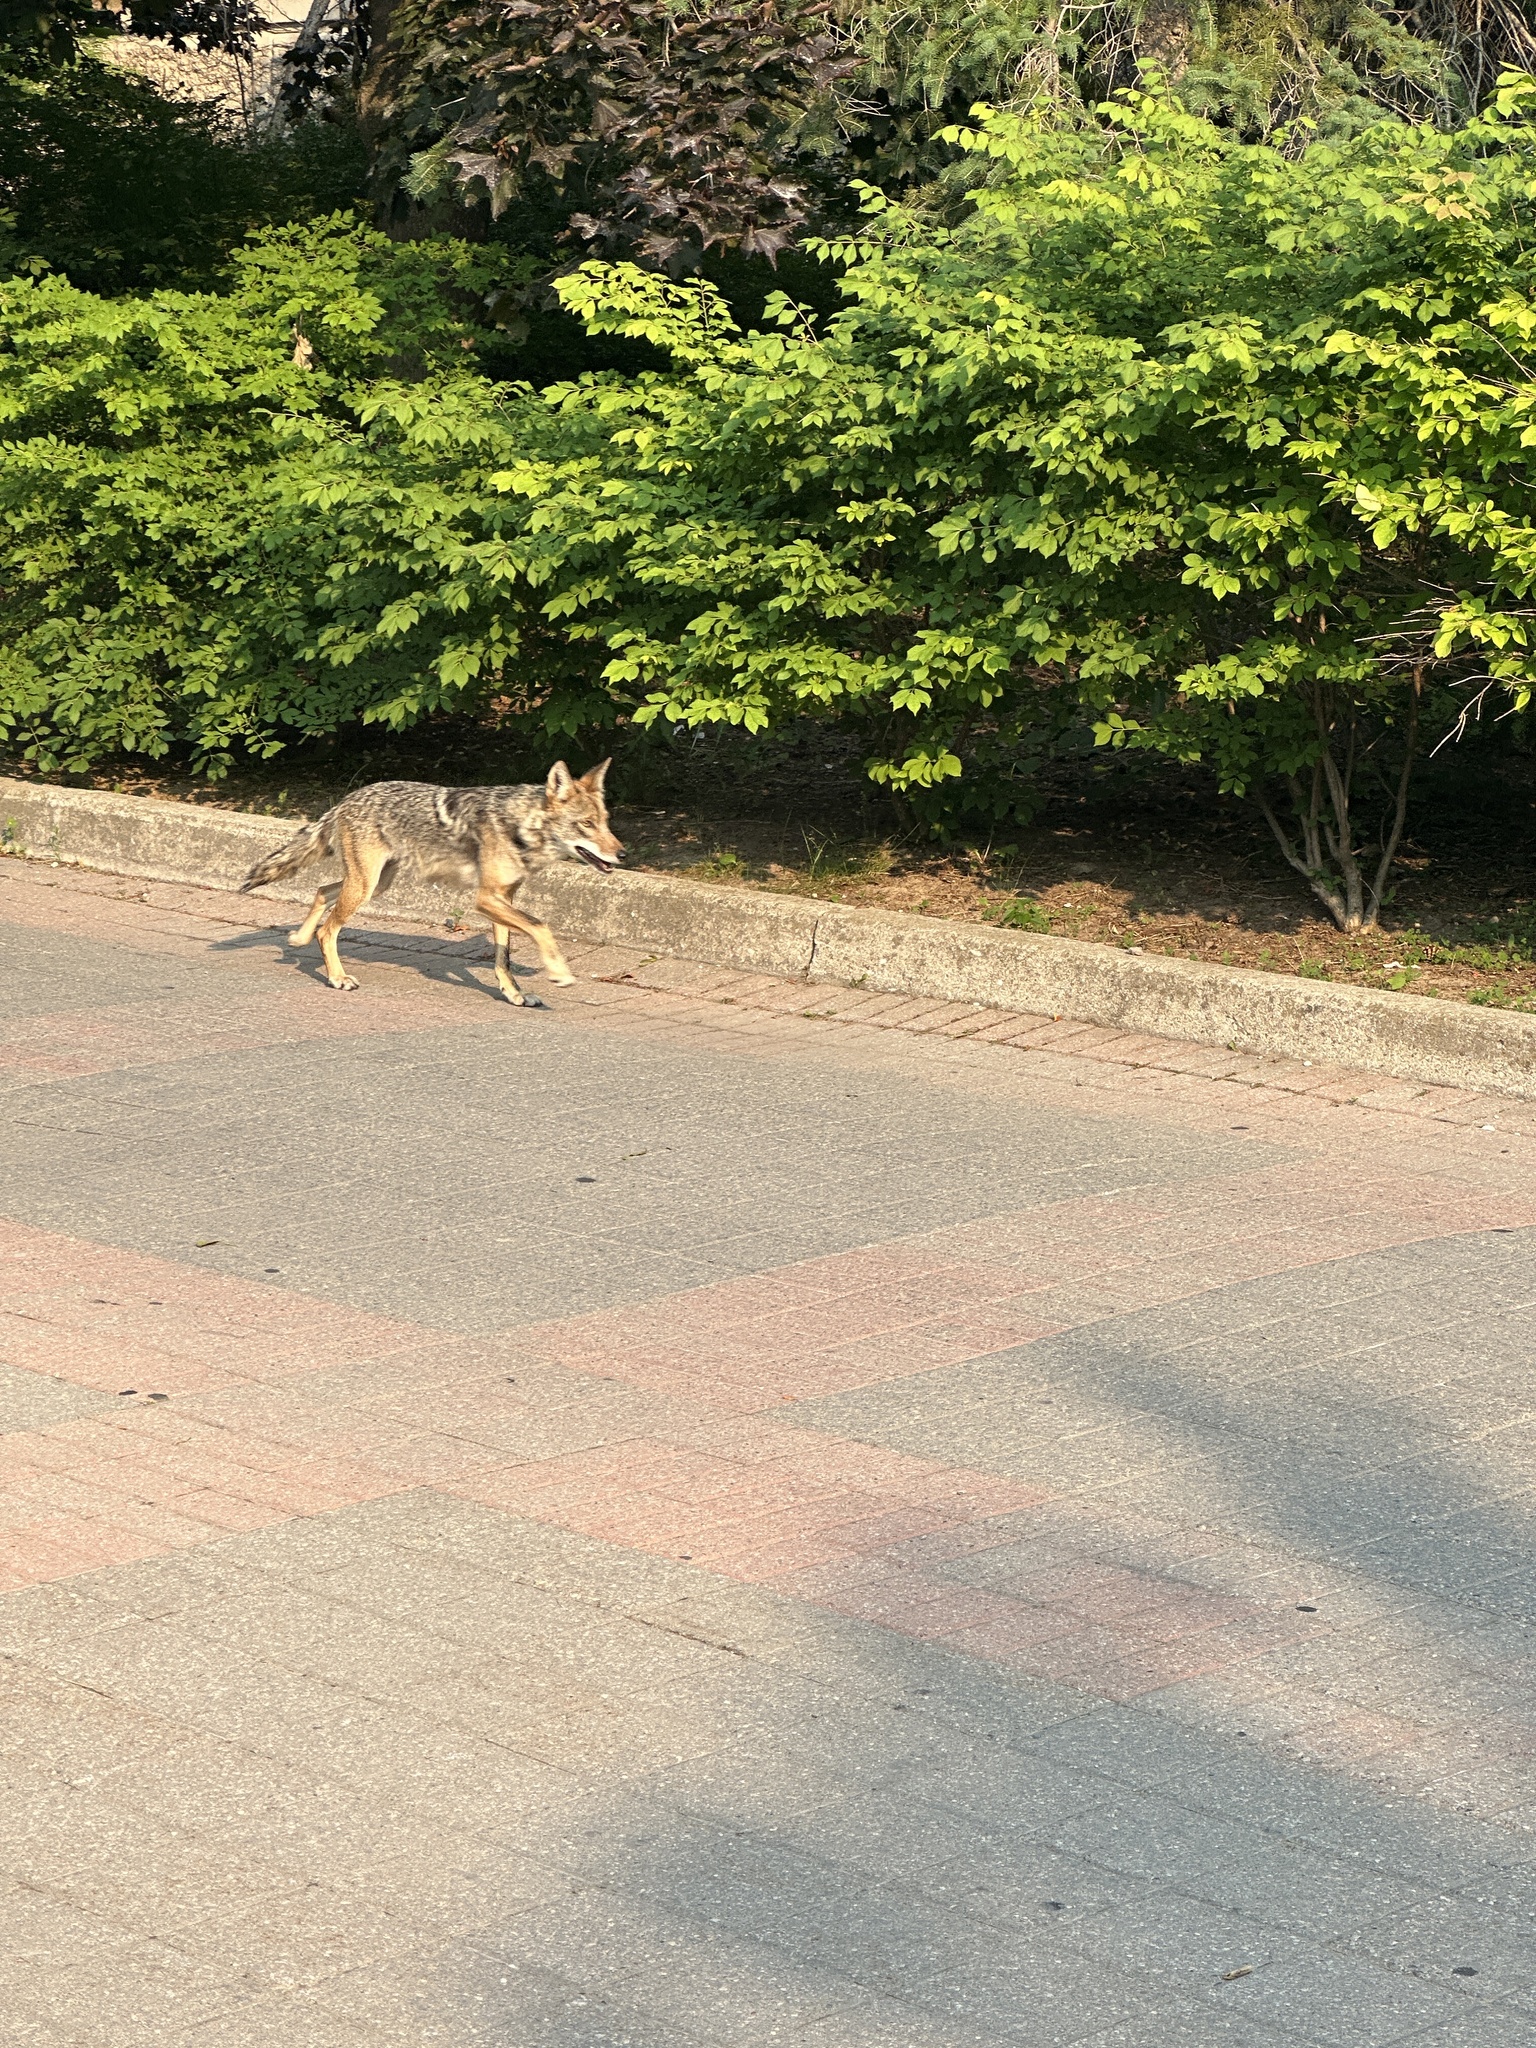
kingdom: Animalia
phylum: Chordata
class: Mammalia
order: Carnivora
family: Canidae
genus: Canis
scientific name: Canis latrans
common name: Coyote
